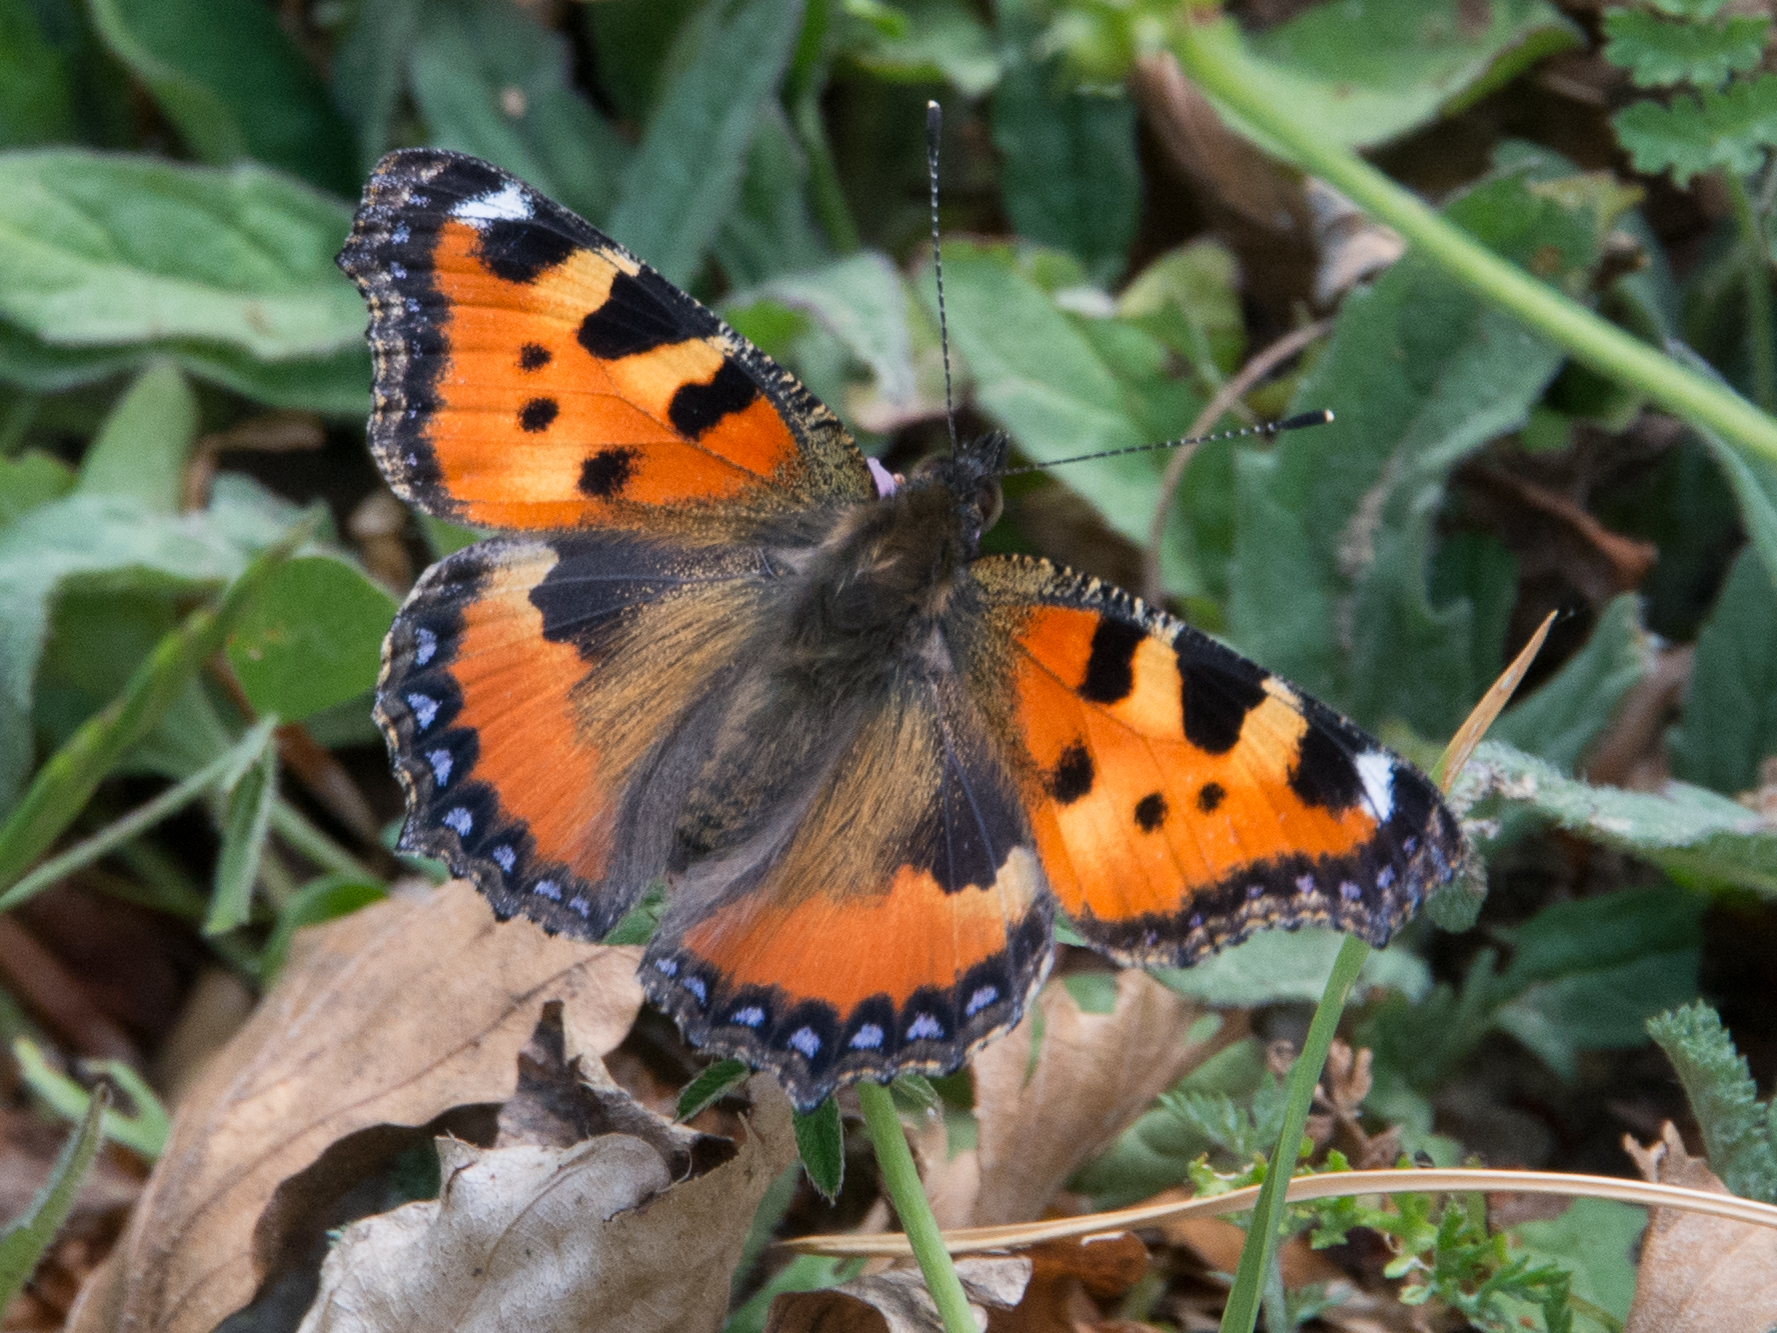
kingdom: Animalia
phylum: Arthropoda
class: Insecta
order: Lepidoptera
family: Nymphalidae
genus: Aglais
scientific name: Aglais urticae
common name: Small tortoiseshell
